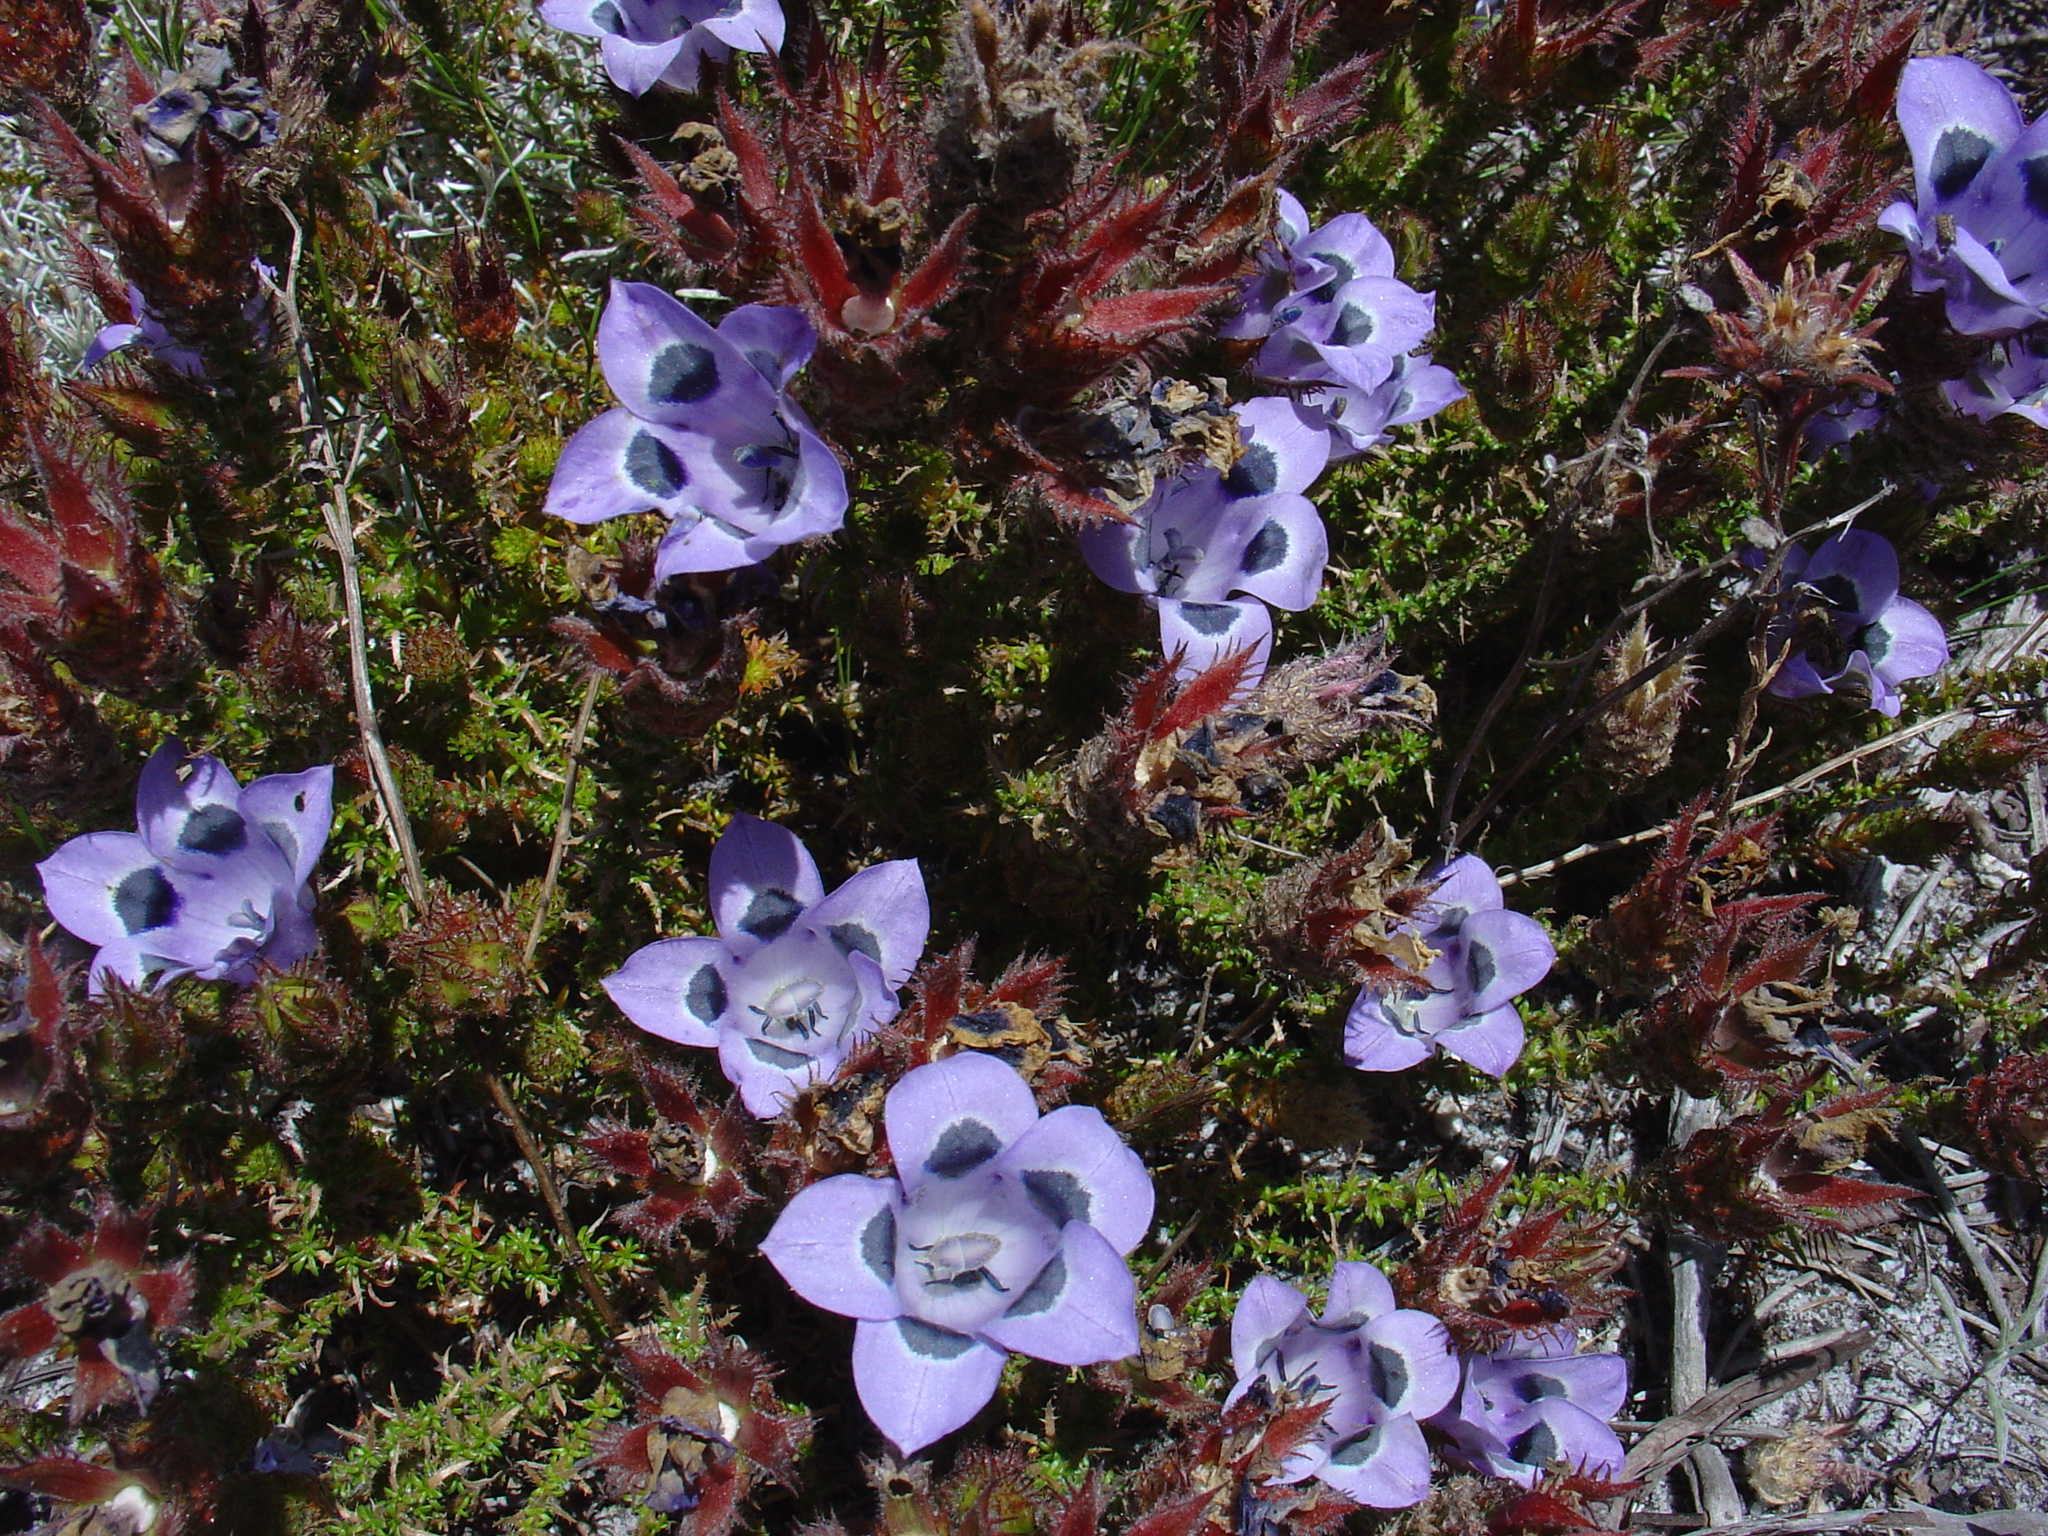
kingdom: Plantae
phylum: Tracheophyta
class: Magnoliopsida
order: Asterales
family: Campanulaceae
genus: Roella
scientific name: Roella incurva
